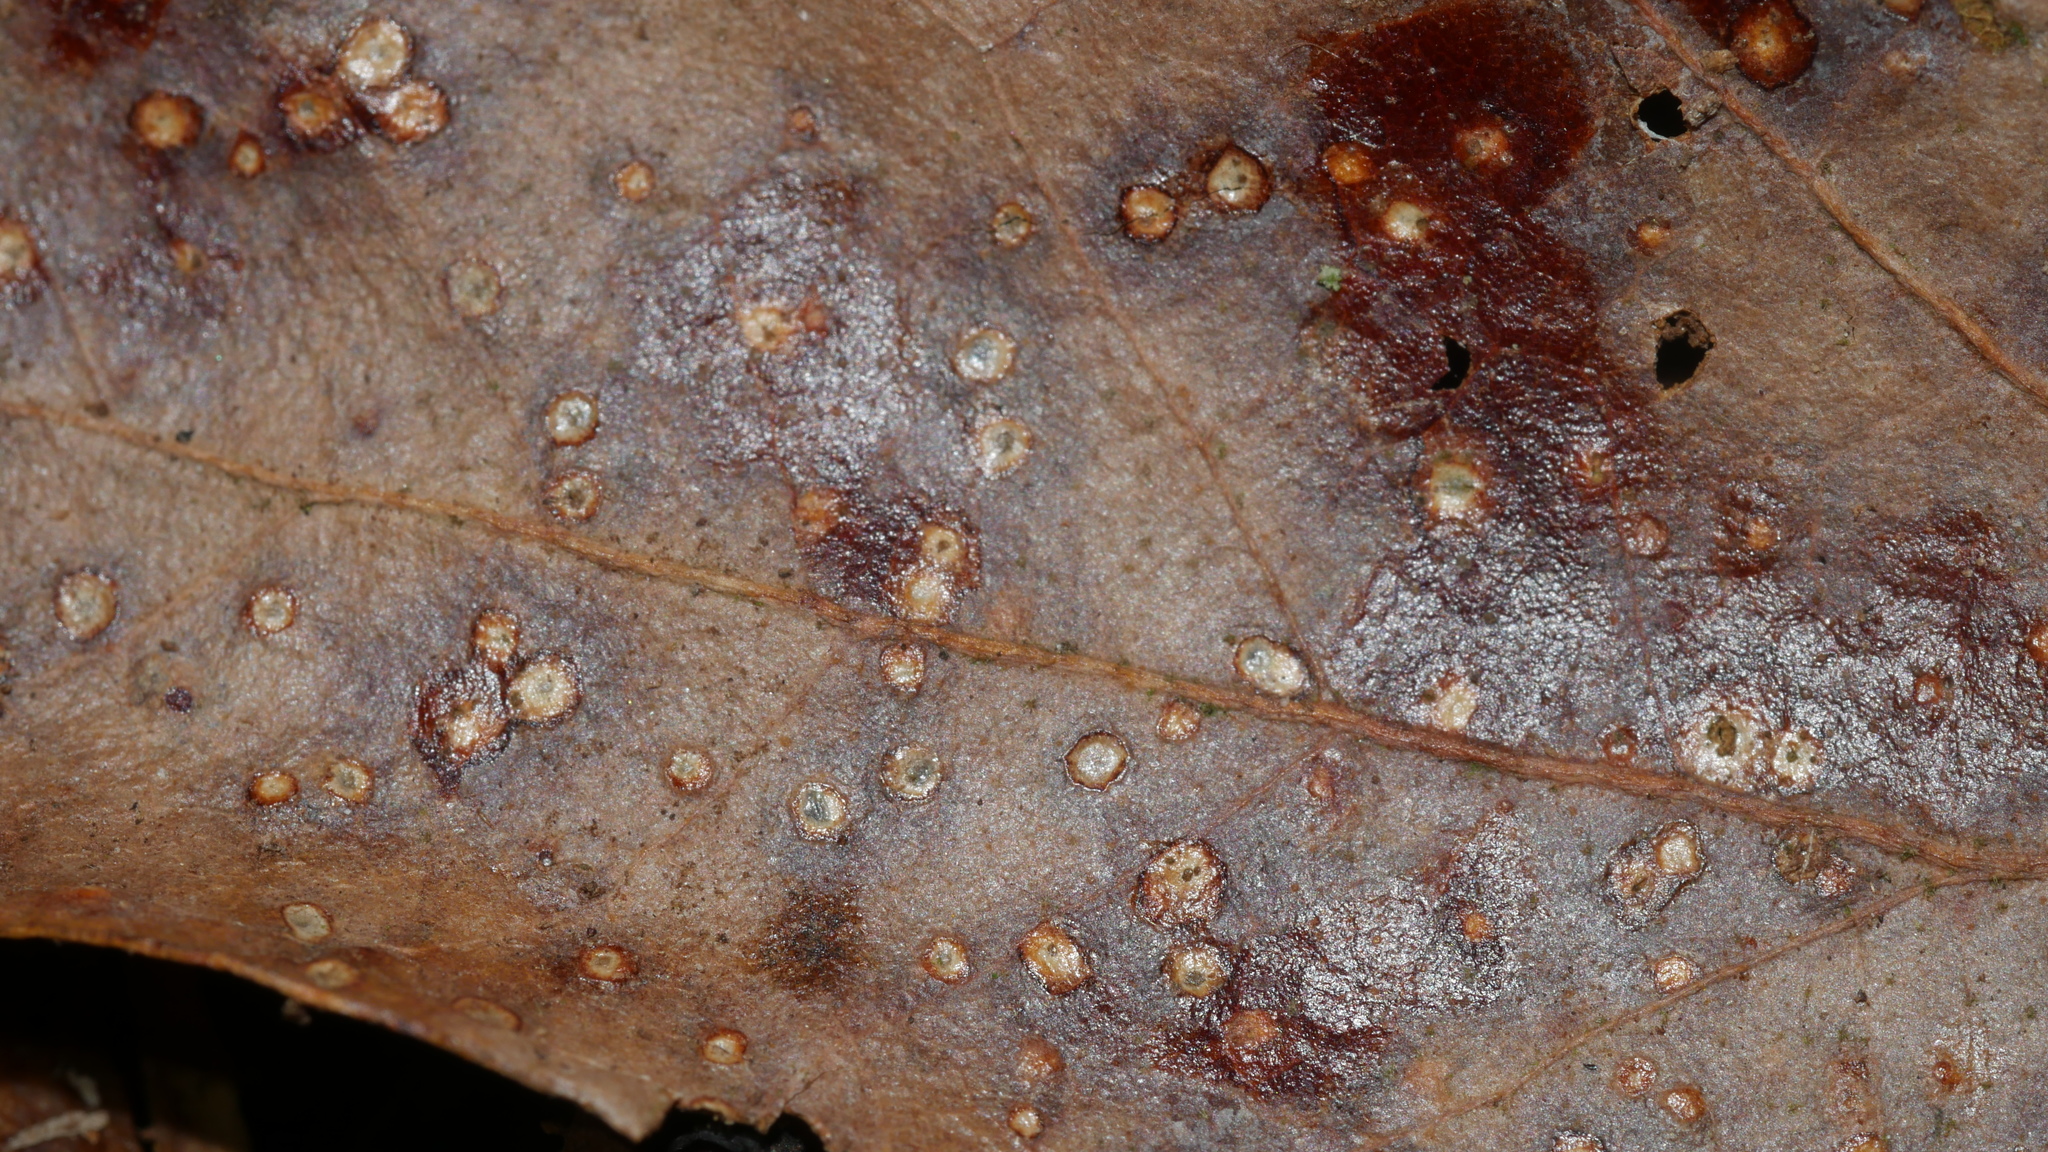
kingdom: Animalia
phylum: Arthropoda
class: Insecta
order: Hymenoptera
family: Cynipidae
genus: Neuroterus
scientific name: Neuroterus niger
